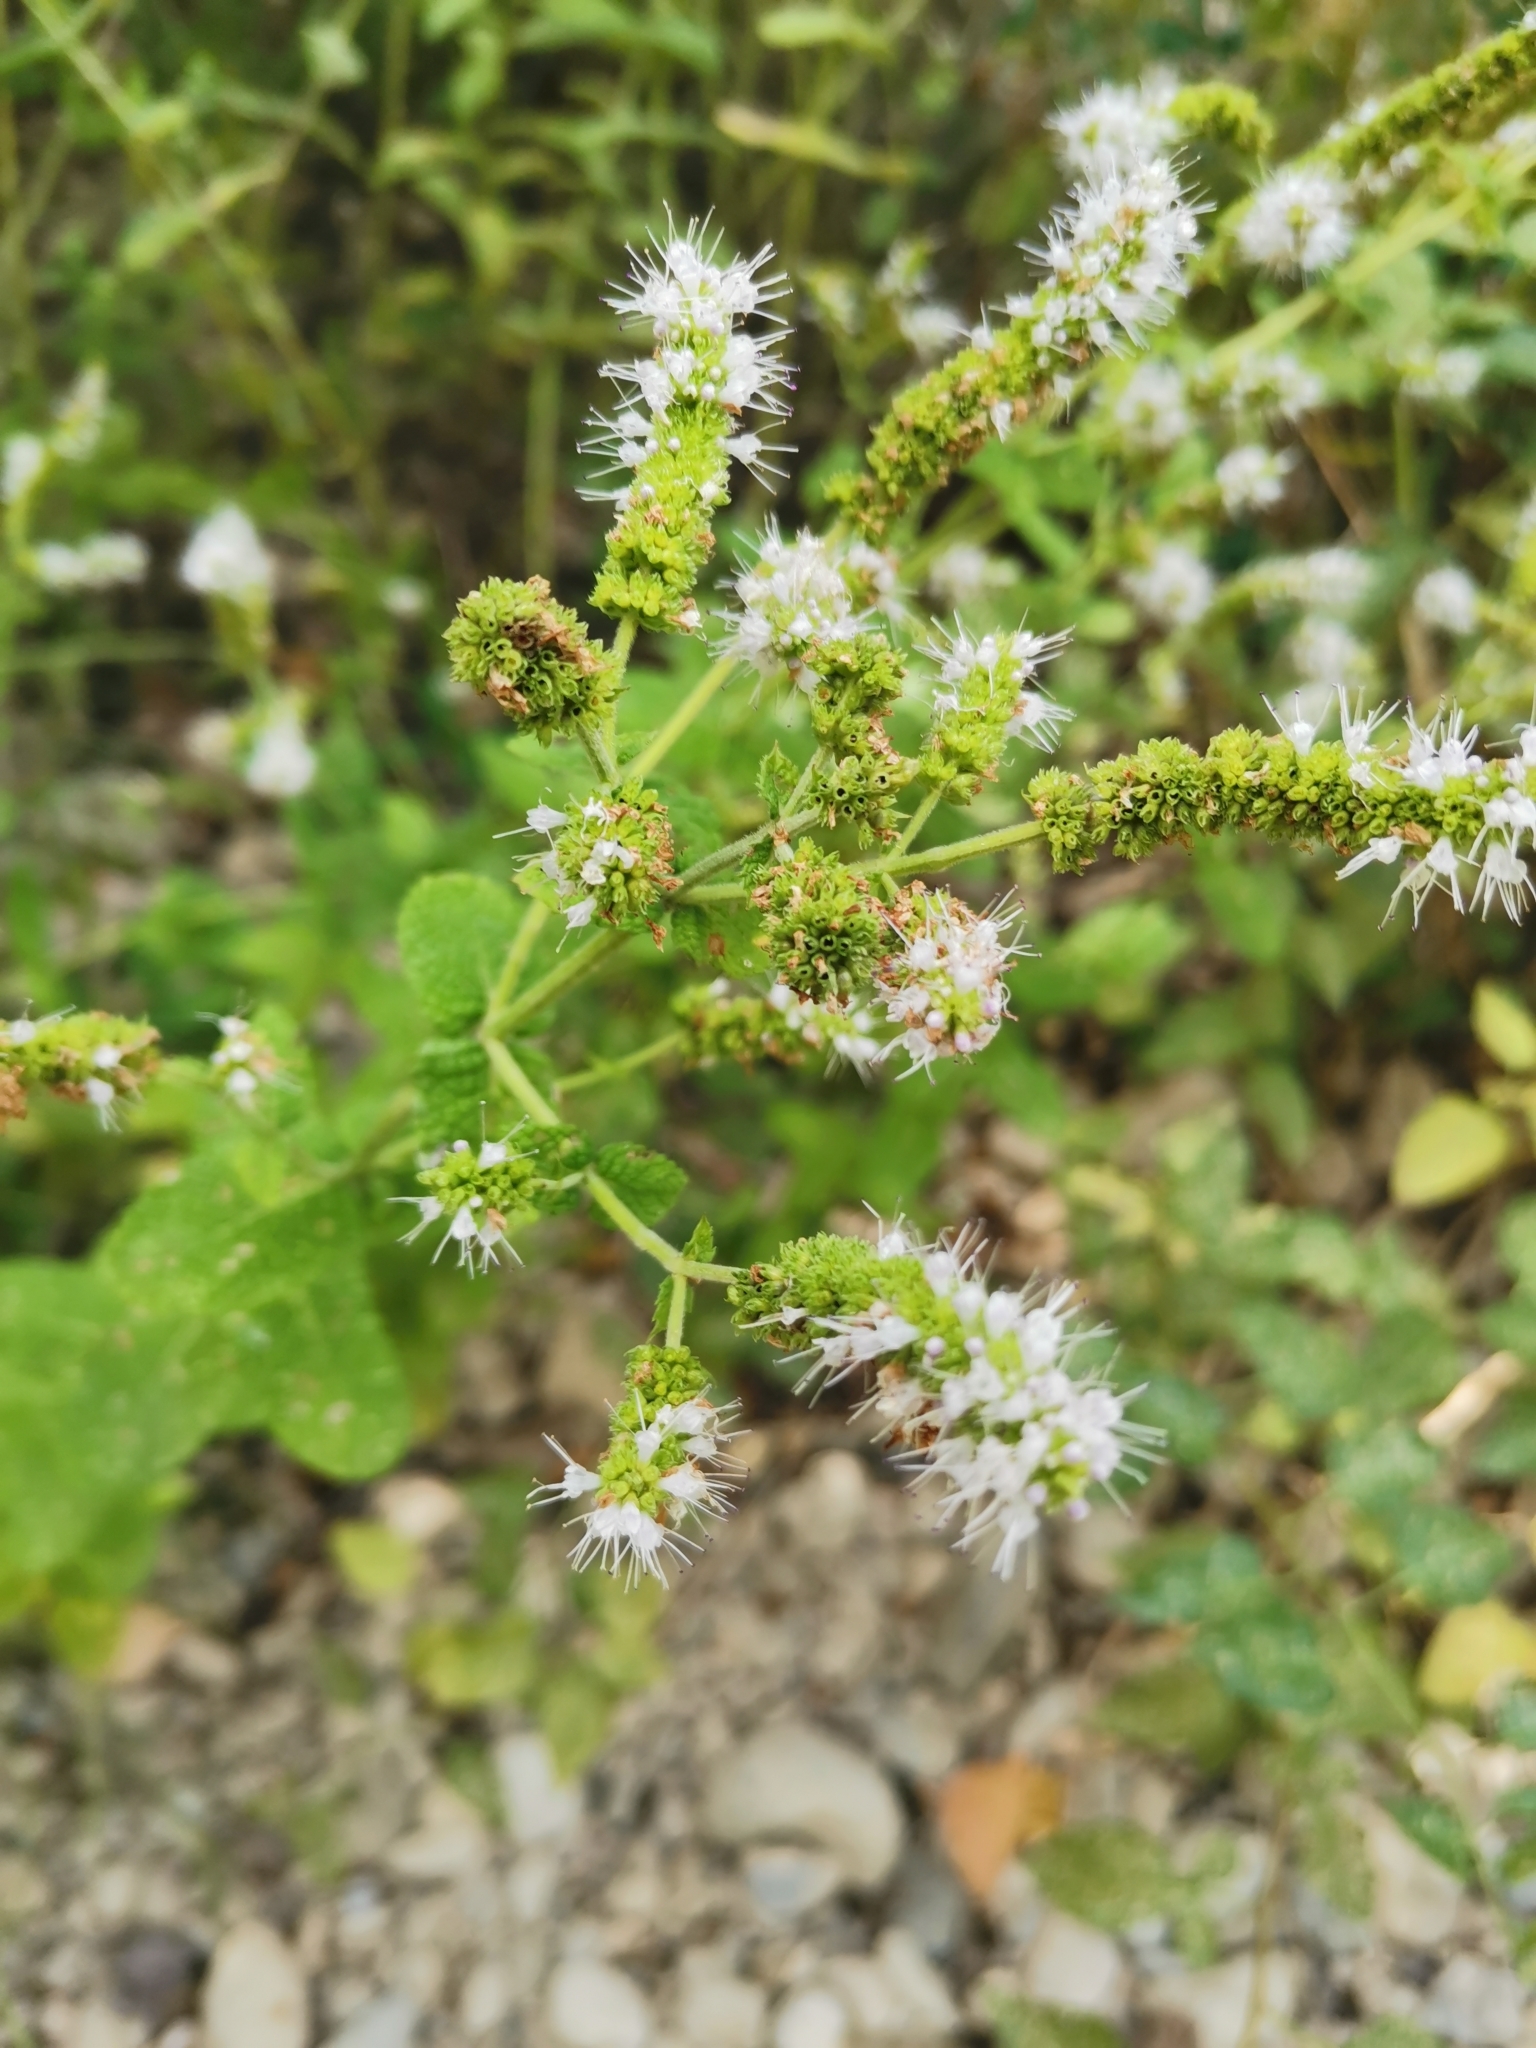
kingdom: Plantae
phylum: Tracheophyta
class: Magnoliopsida
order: Lamiales
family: Lamiaceae
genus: Mentha
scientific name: Mentha suaveolens
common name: Apple mint
